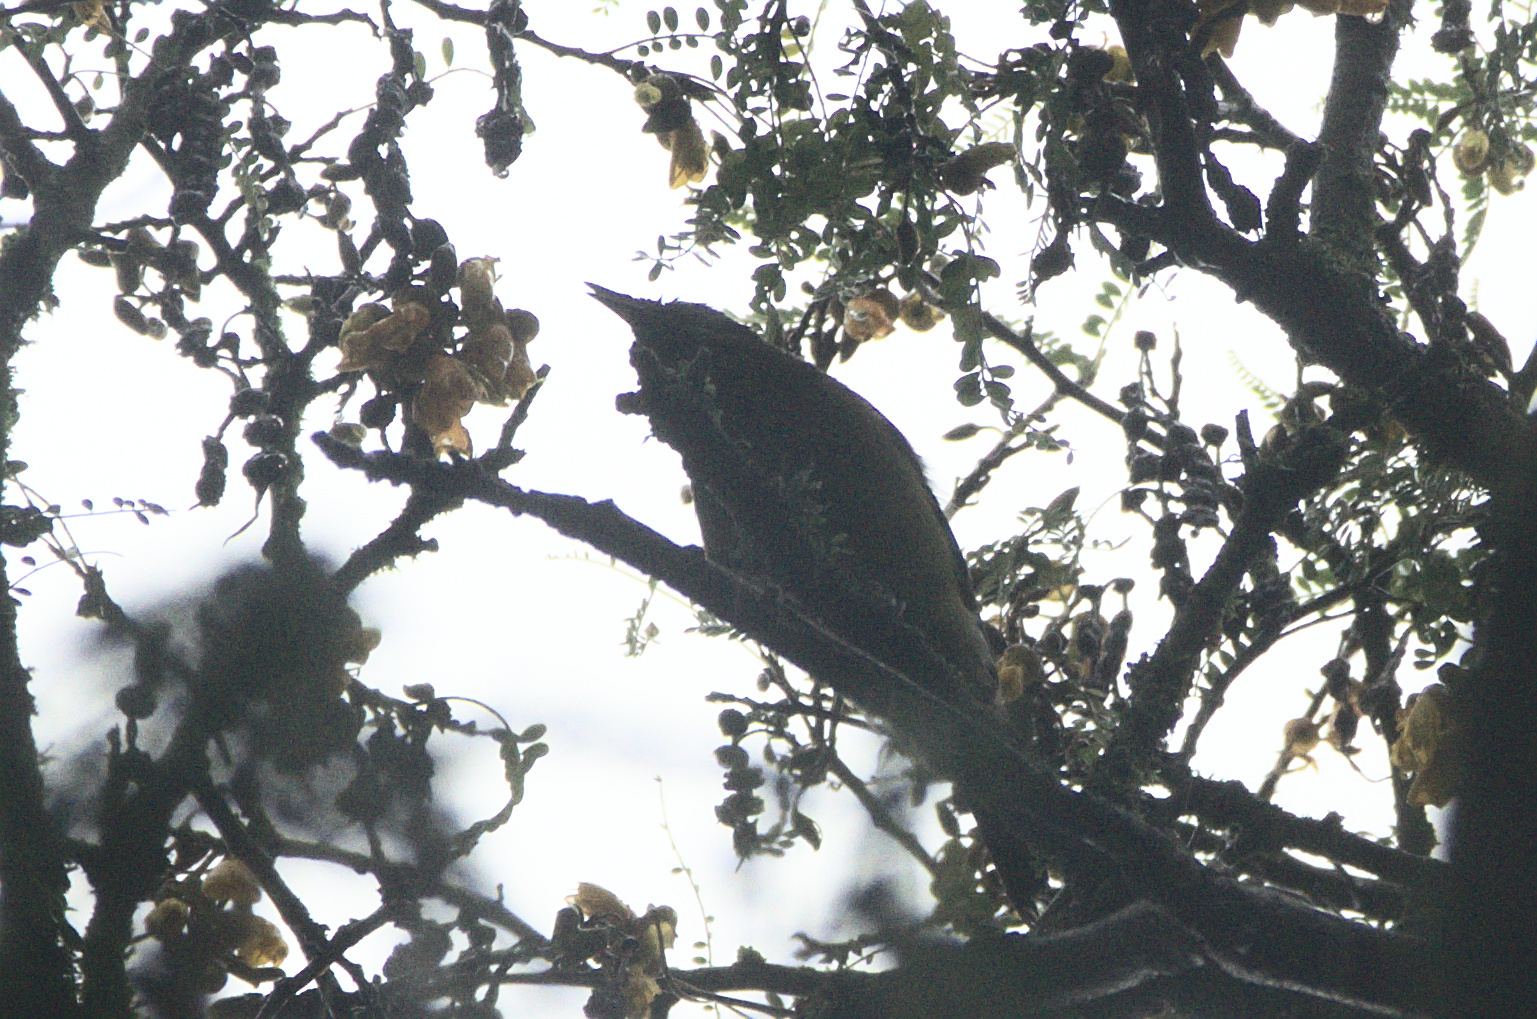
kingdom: Animalia
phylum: Chordata
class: Aves
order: Passeriformes
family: Meliphagidae
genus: Anthornis
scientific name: Anthornis melanura
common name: New zealand bellbird
